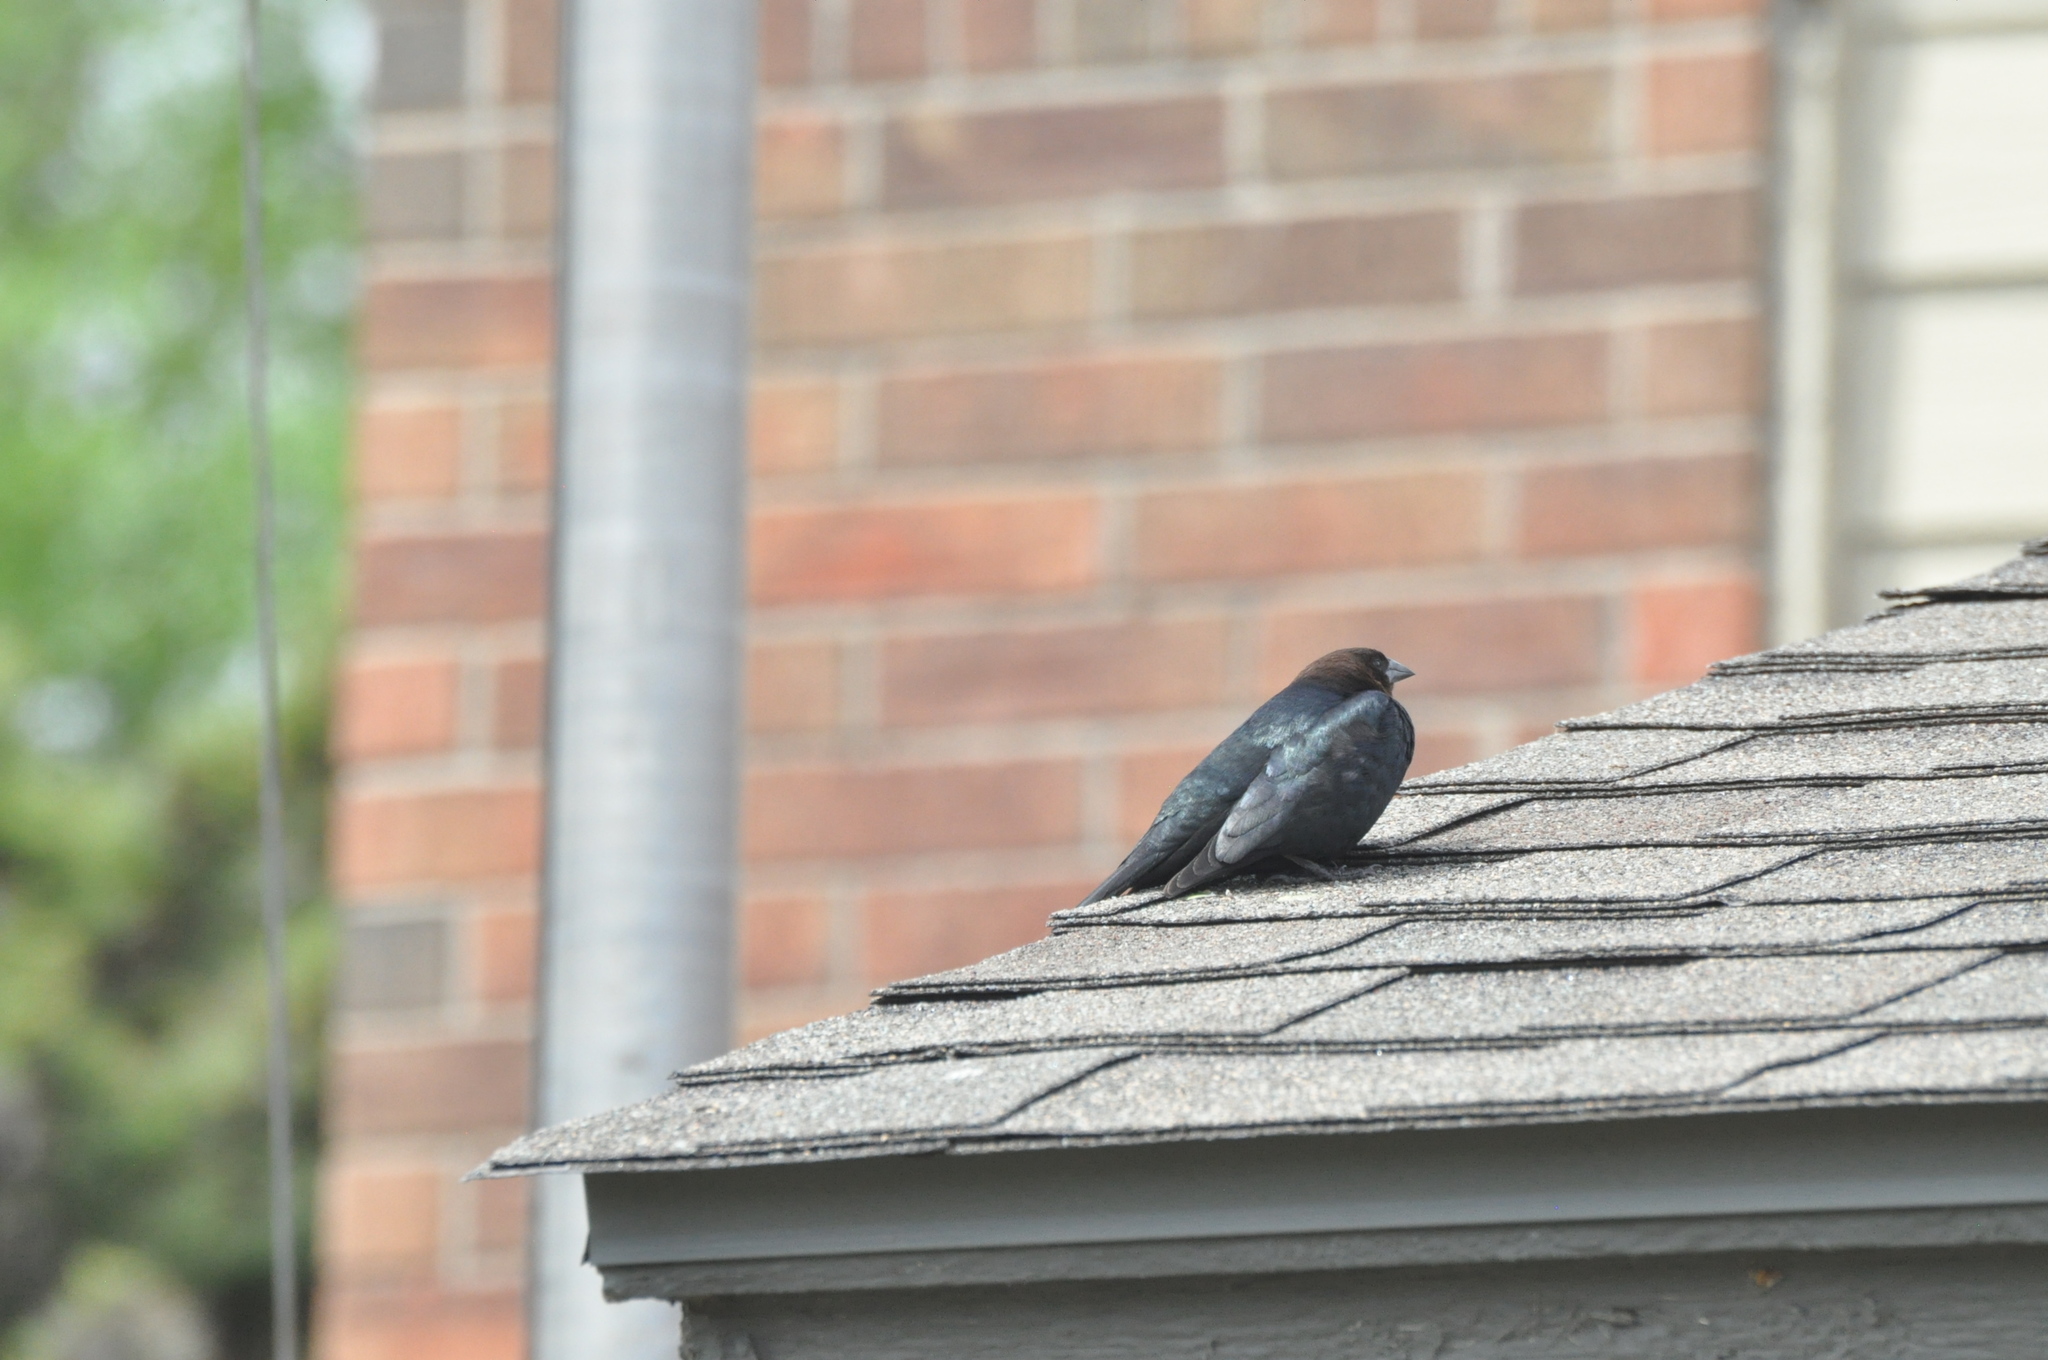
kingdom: Animalia
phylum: Chordata
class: Aves
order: Passeriformes
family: Icteridae
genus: Molothrus
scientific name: Molothrus ater
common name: Brown-headed cowbird
